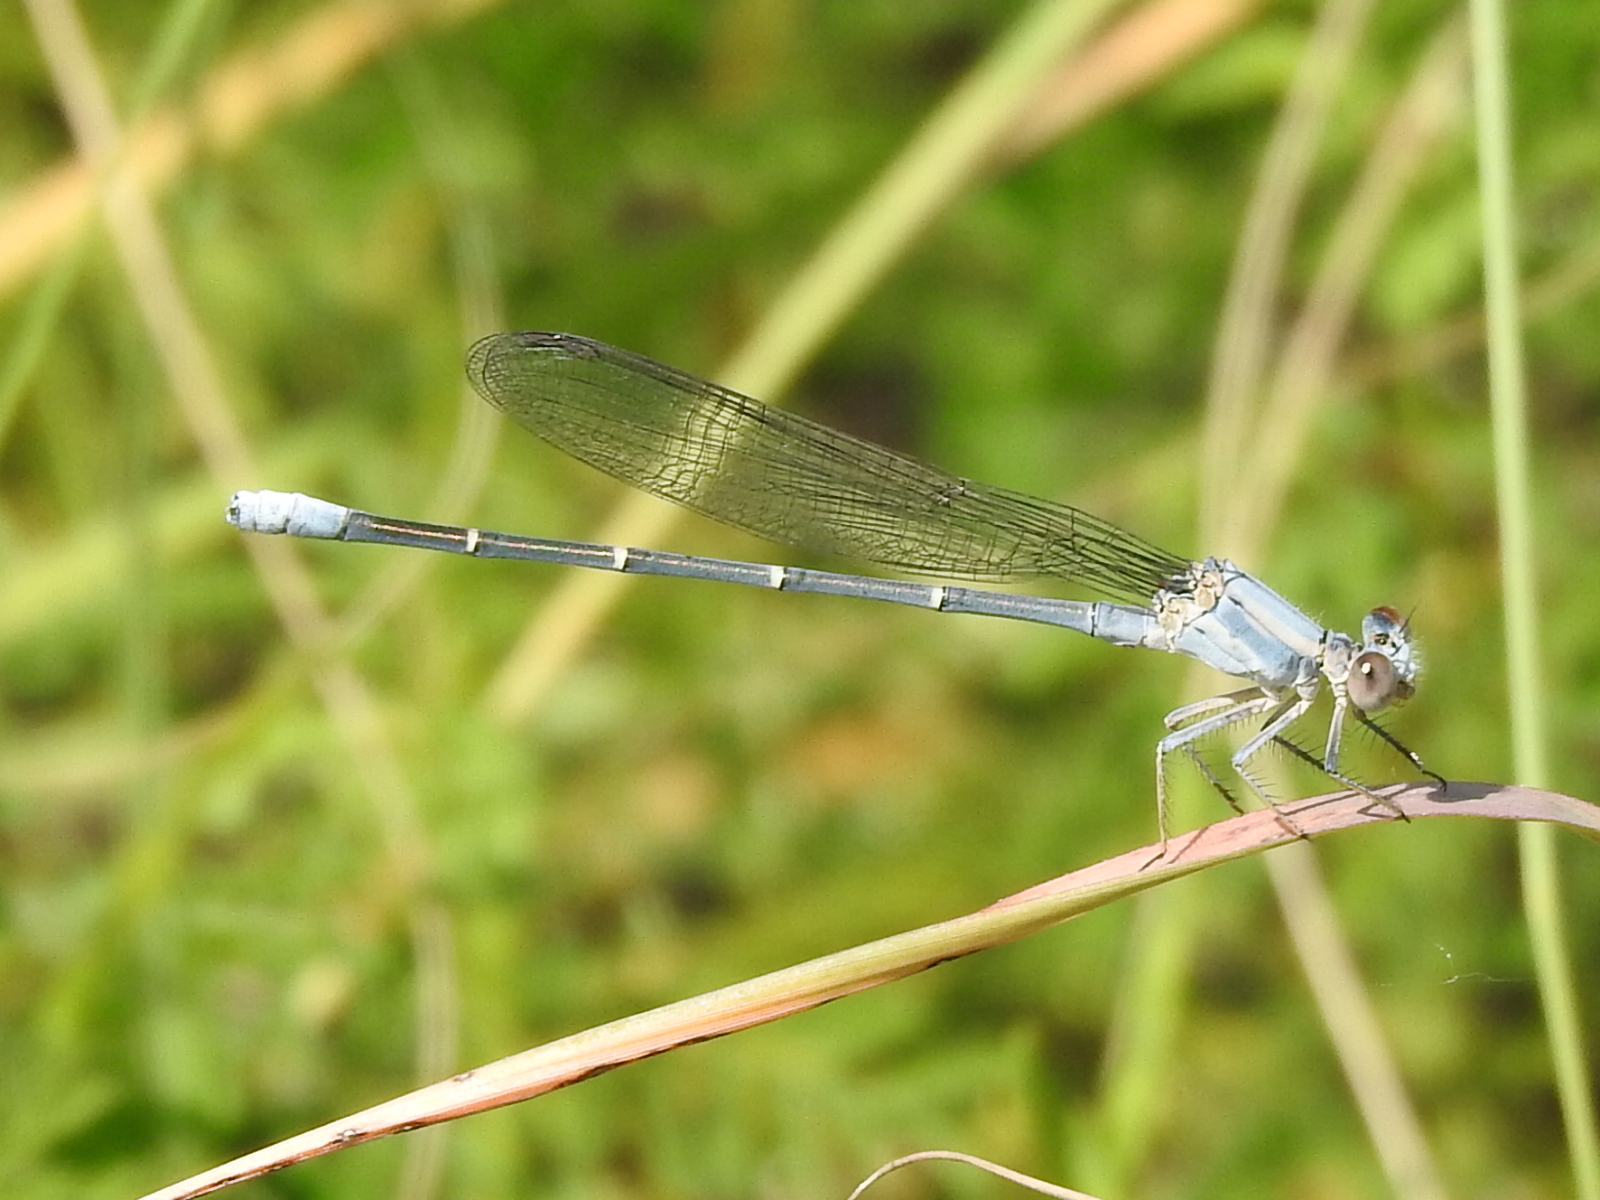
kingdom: Animalia
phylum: Arthropoda
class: Insecta
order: Odonata
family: Coenagrionidae
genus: Argia
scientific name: Argia moesta
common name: Powdered dancer
